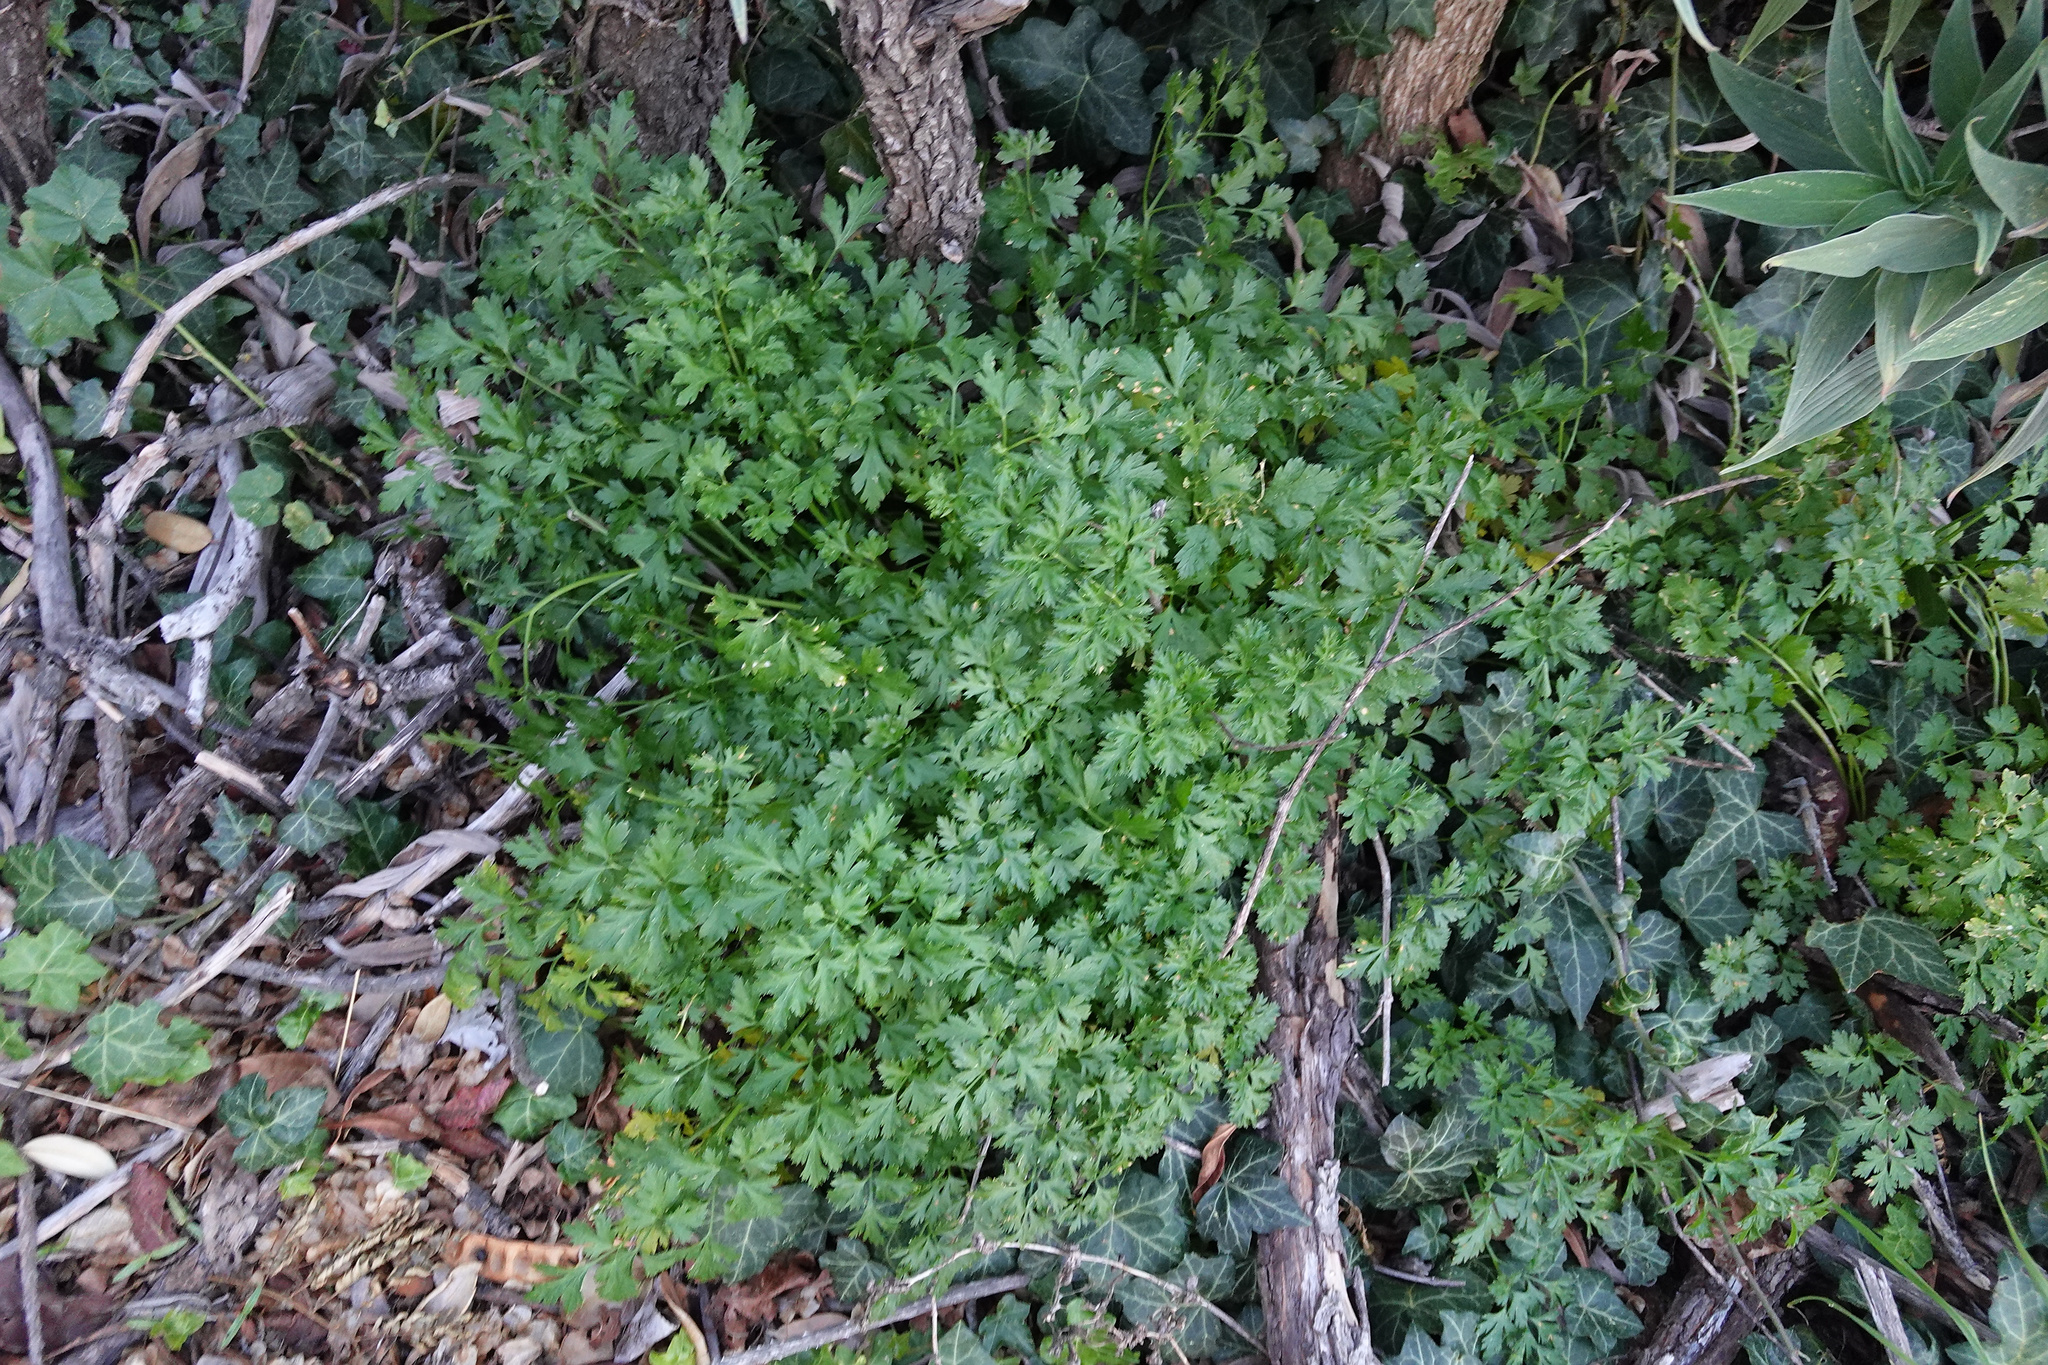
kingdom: Plantae
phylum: Tracheophyta
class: Magnoliopsida
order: Apiales
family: Apiaceae
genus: Petroselinum
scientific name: Petroselinum crispum
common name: Parsley
